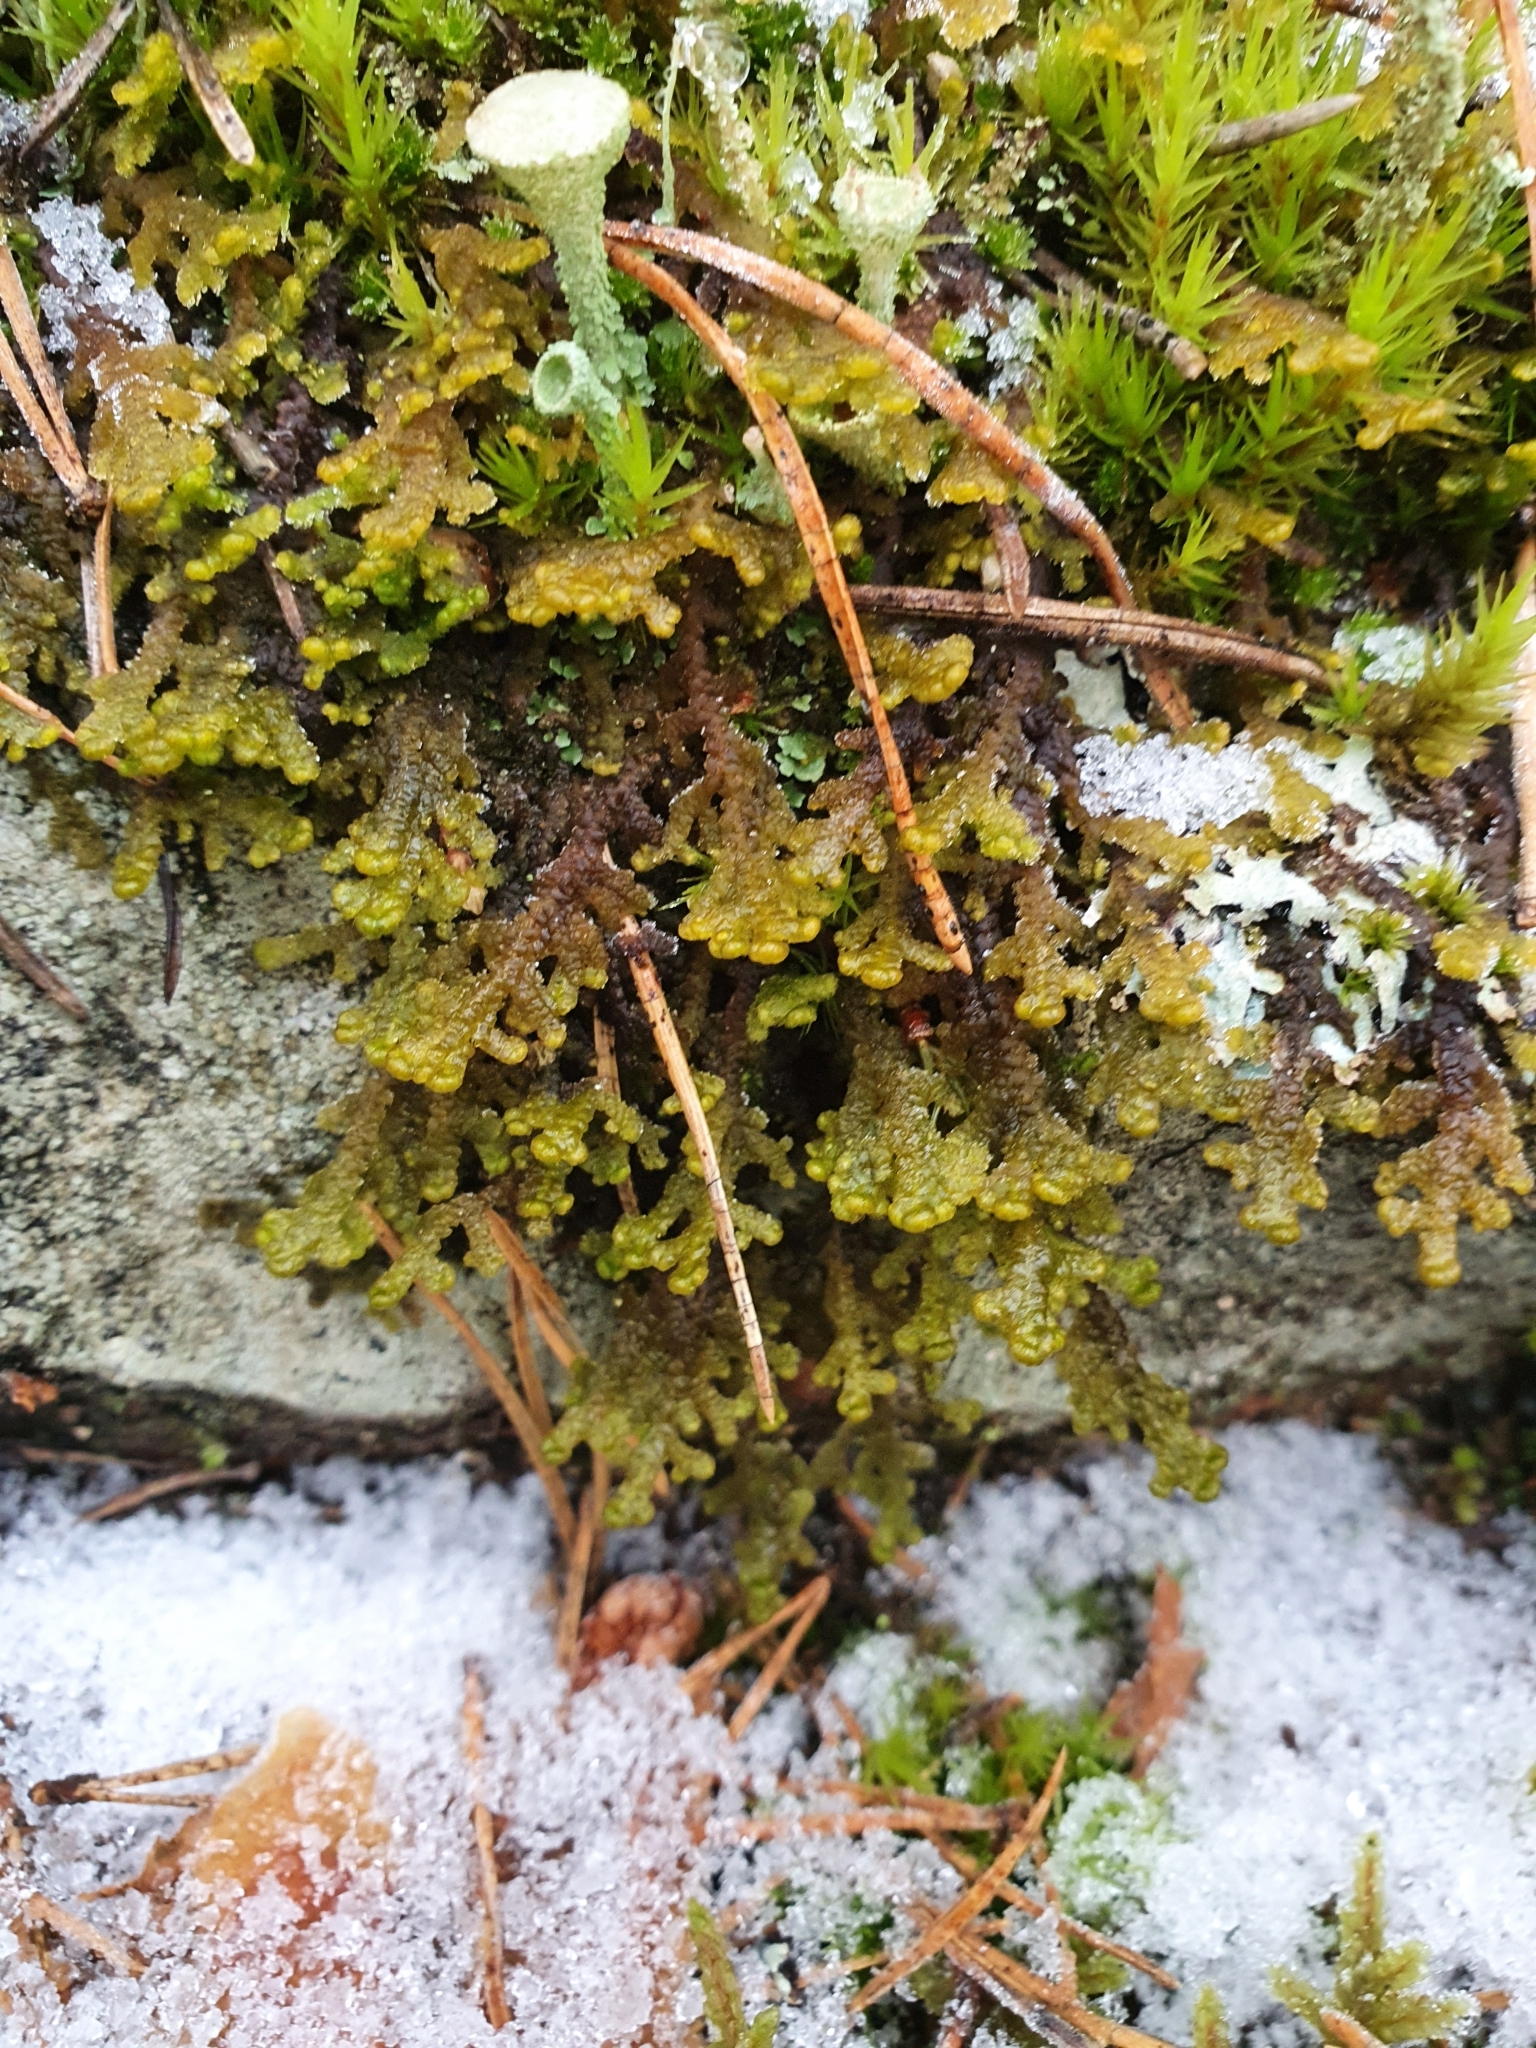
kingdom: Plantae
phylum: Marchantiophyta
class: Jungermanniopsida
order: Ptilidiales
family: Ptilidiaceae
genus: Ptilidium
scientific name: Ptilidium ciliare
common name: Ciliate fringewort
